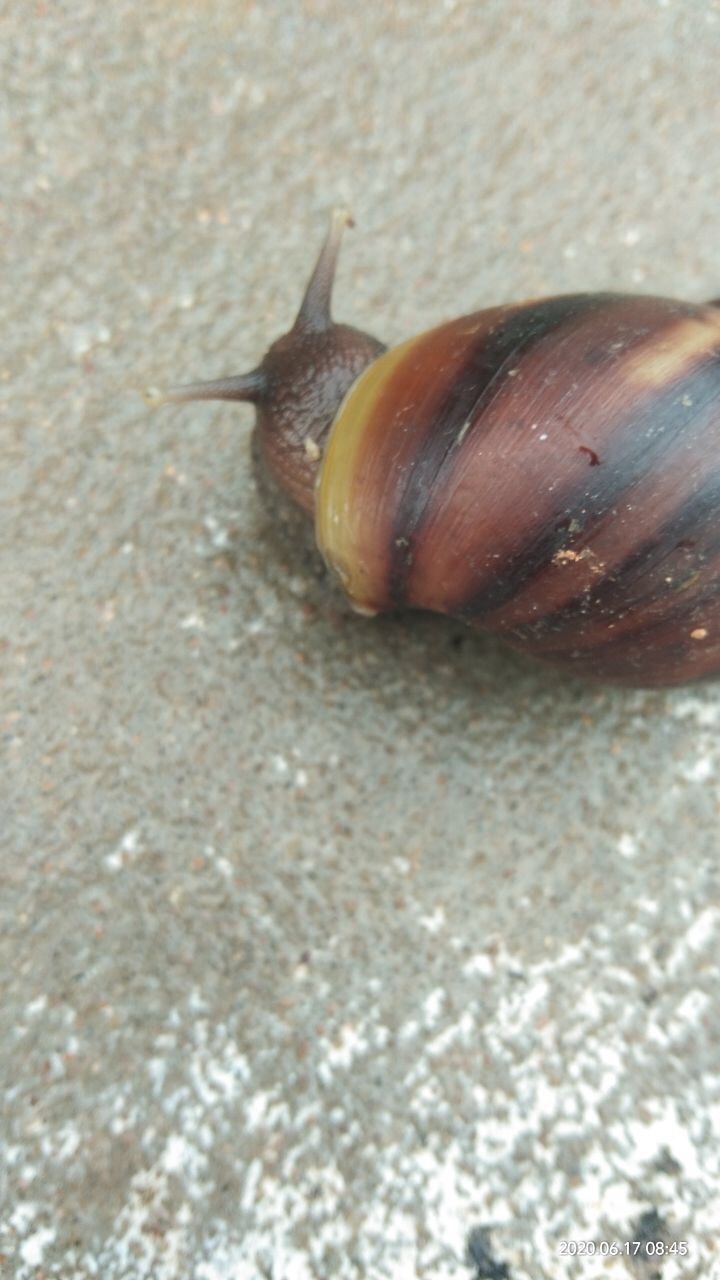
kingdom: Animalia
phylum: Mollusca
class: Gastropoda
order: Stylommatophora
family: Achatinidae
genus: Lissachatina
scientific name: Lissachatina fulica
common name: Giant african snail
